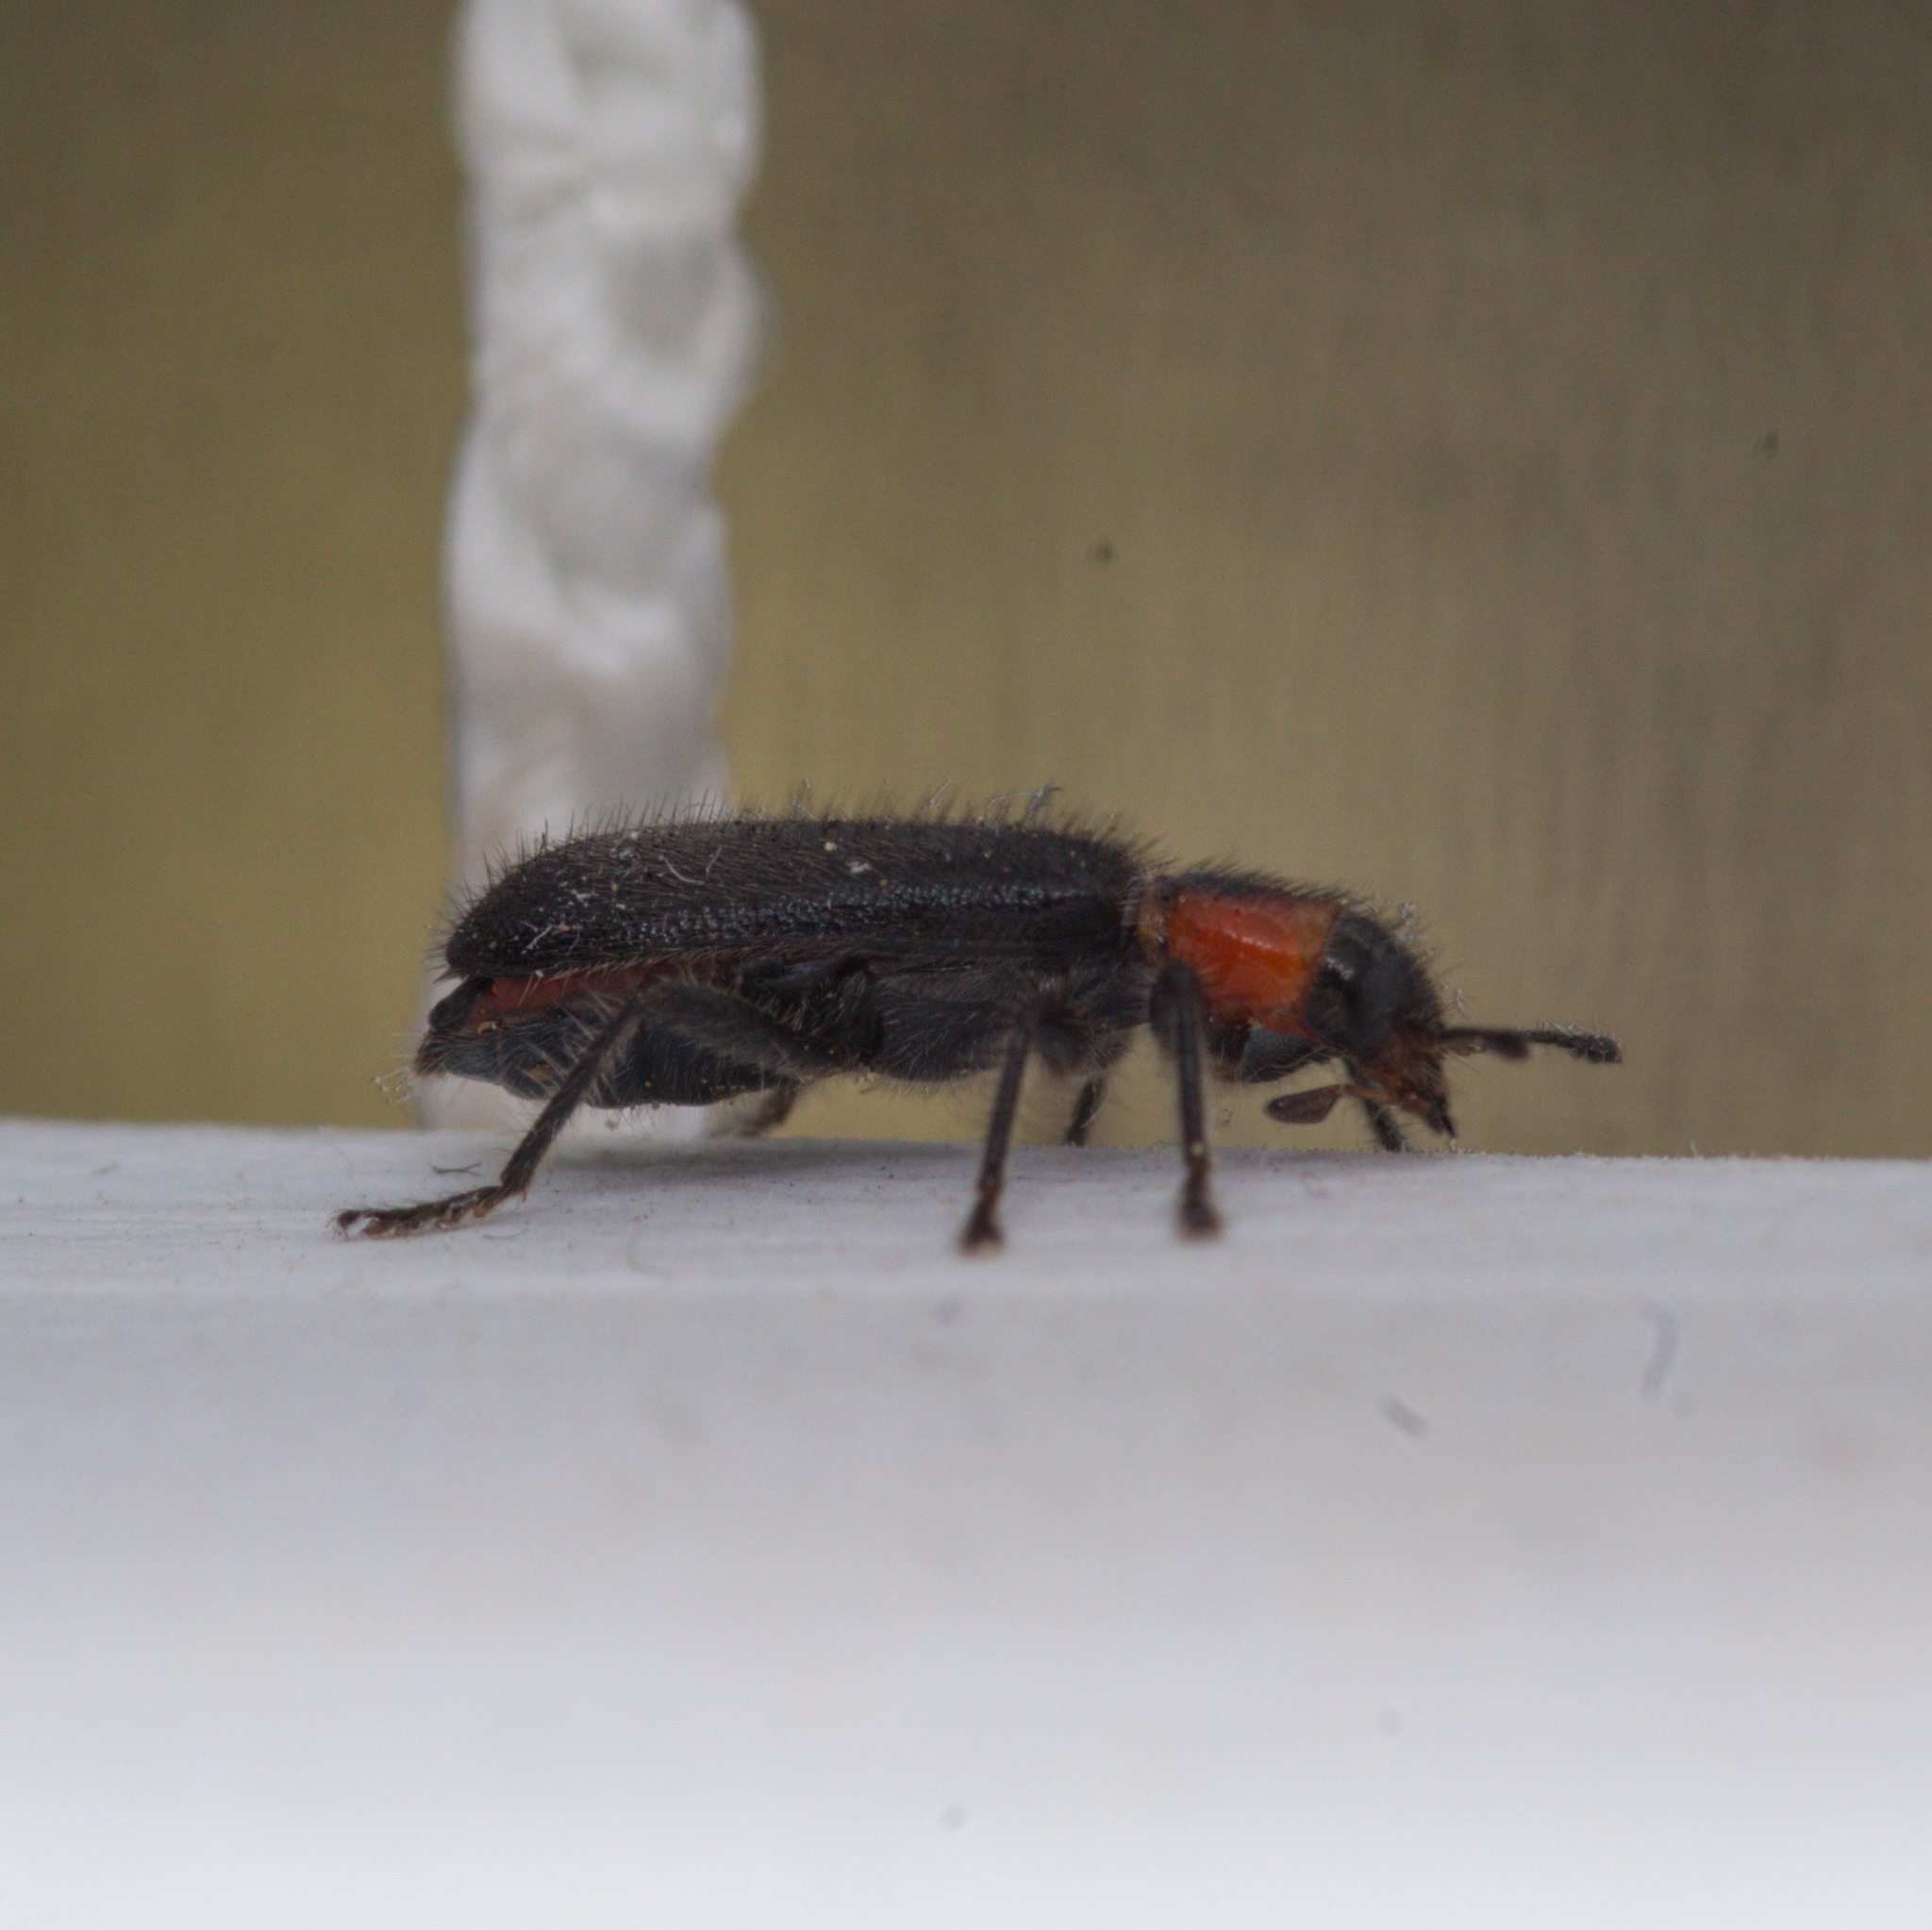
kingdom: Animalia
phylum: Arthropoda
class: Insecta
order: Coleoptera
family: Cleridae
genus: Placopterus
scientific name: Placopterus thoracicus
